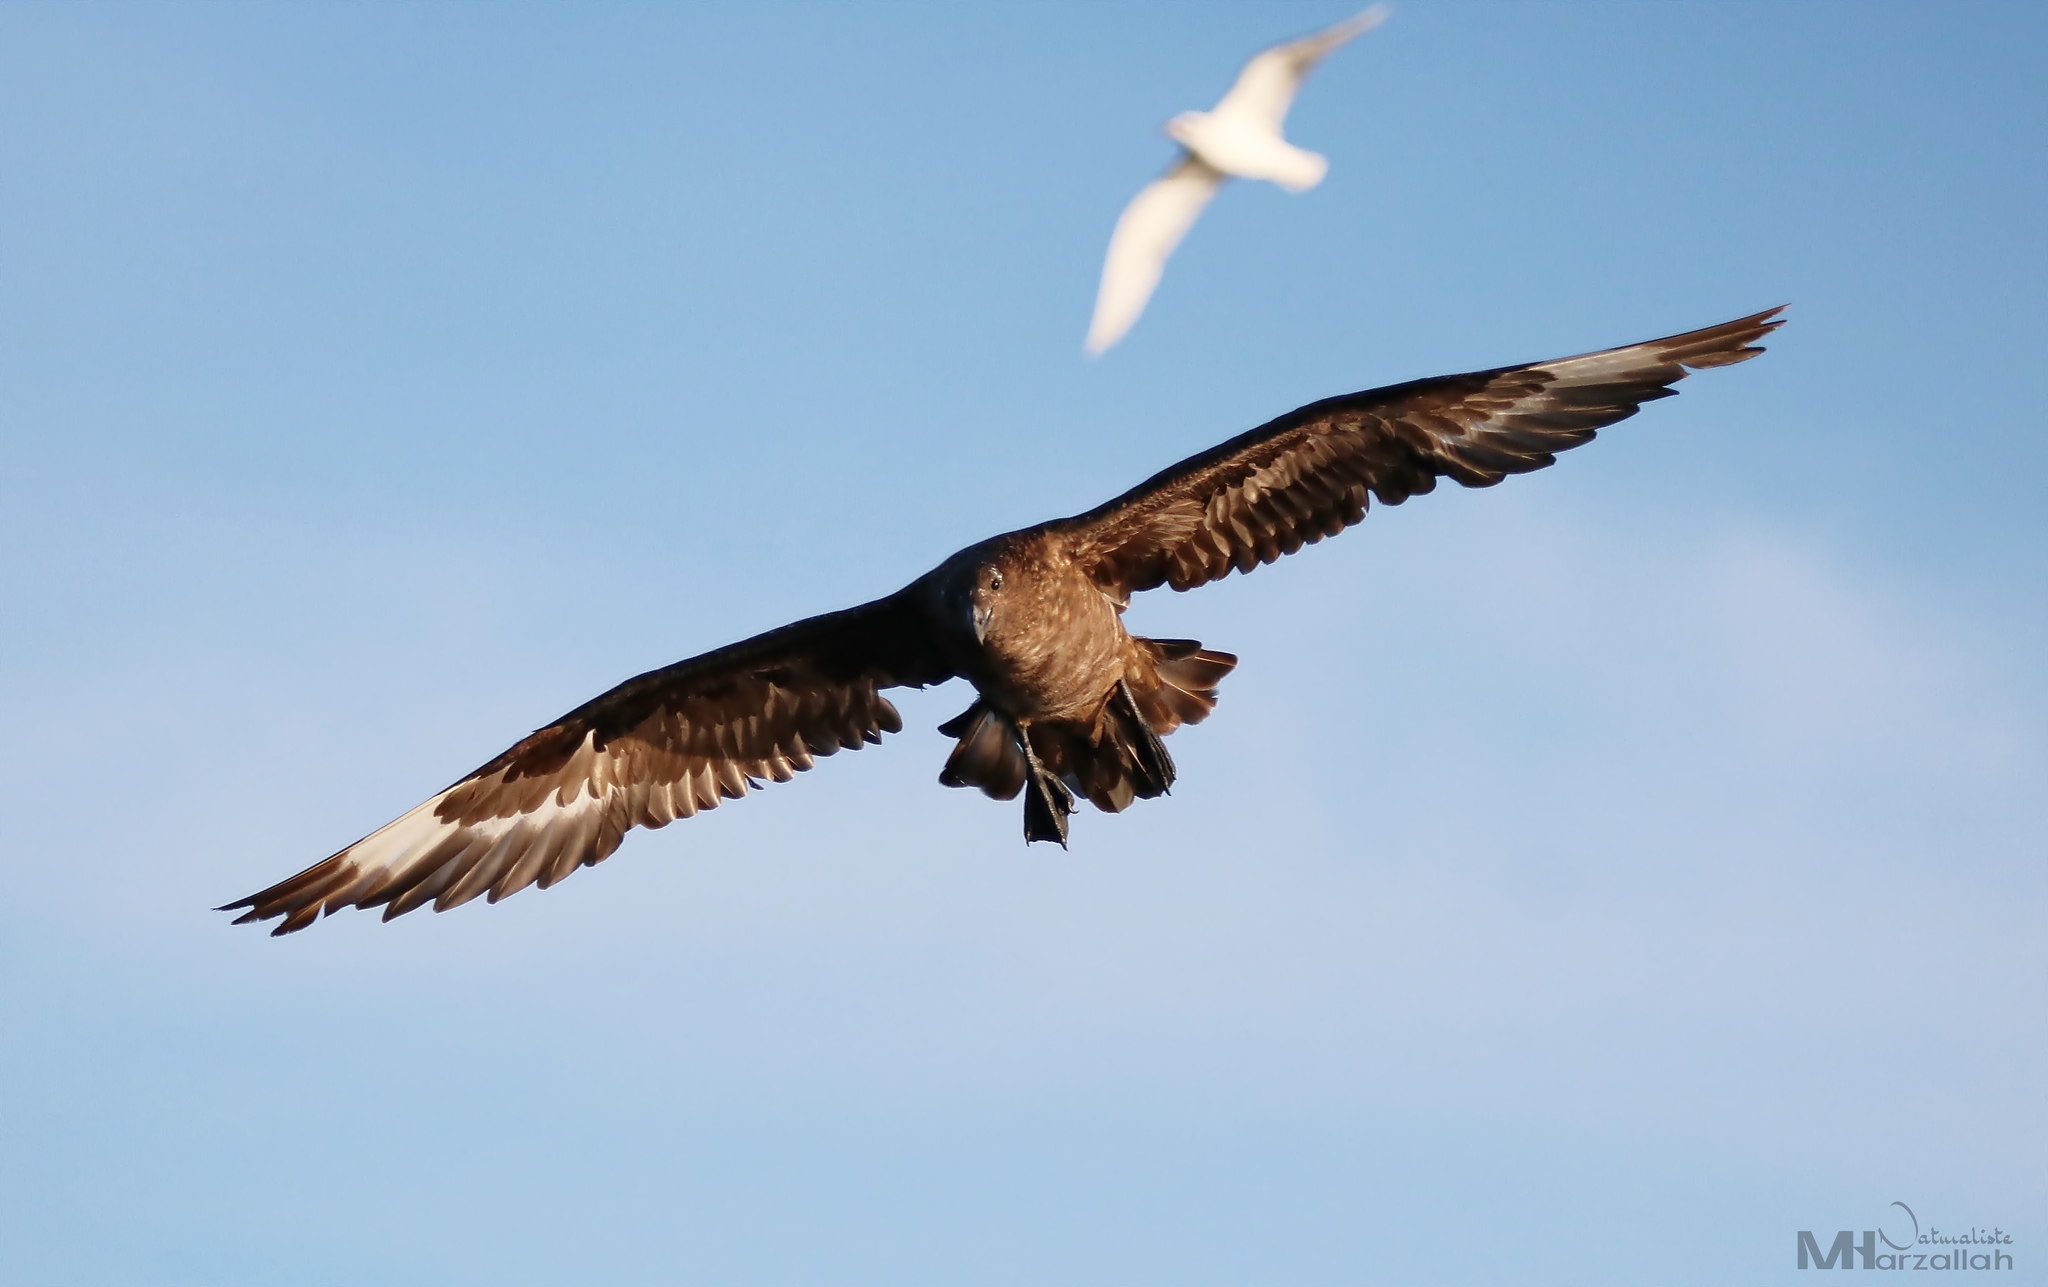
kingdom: Animalia
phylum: Chordata
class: Aves
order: Charadriiformes
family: Stercorariidae
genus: Stercorarius
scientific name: Stercorarius skua
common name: Great skua
